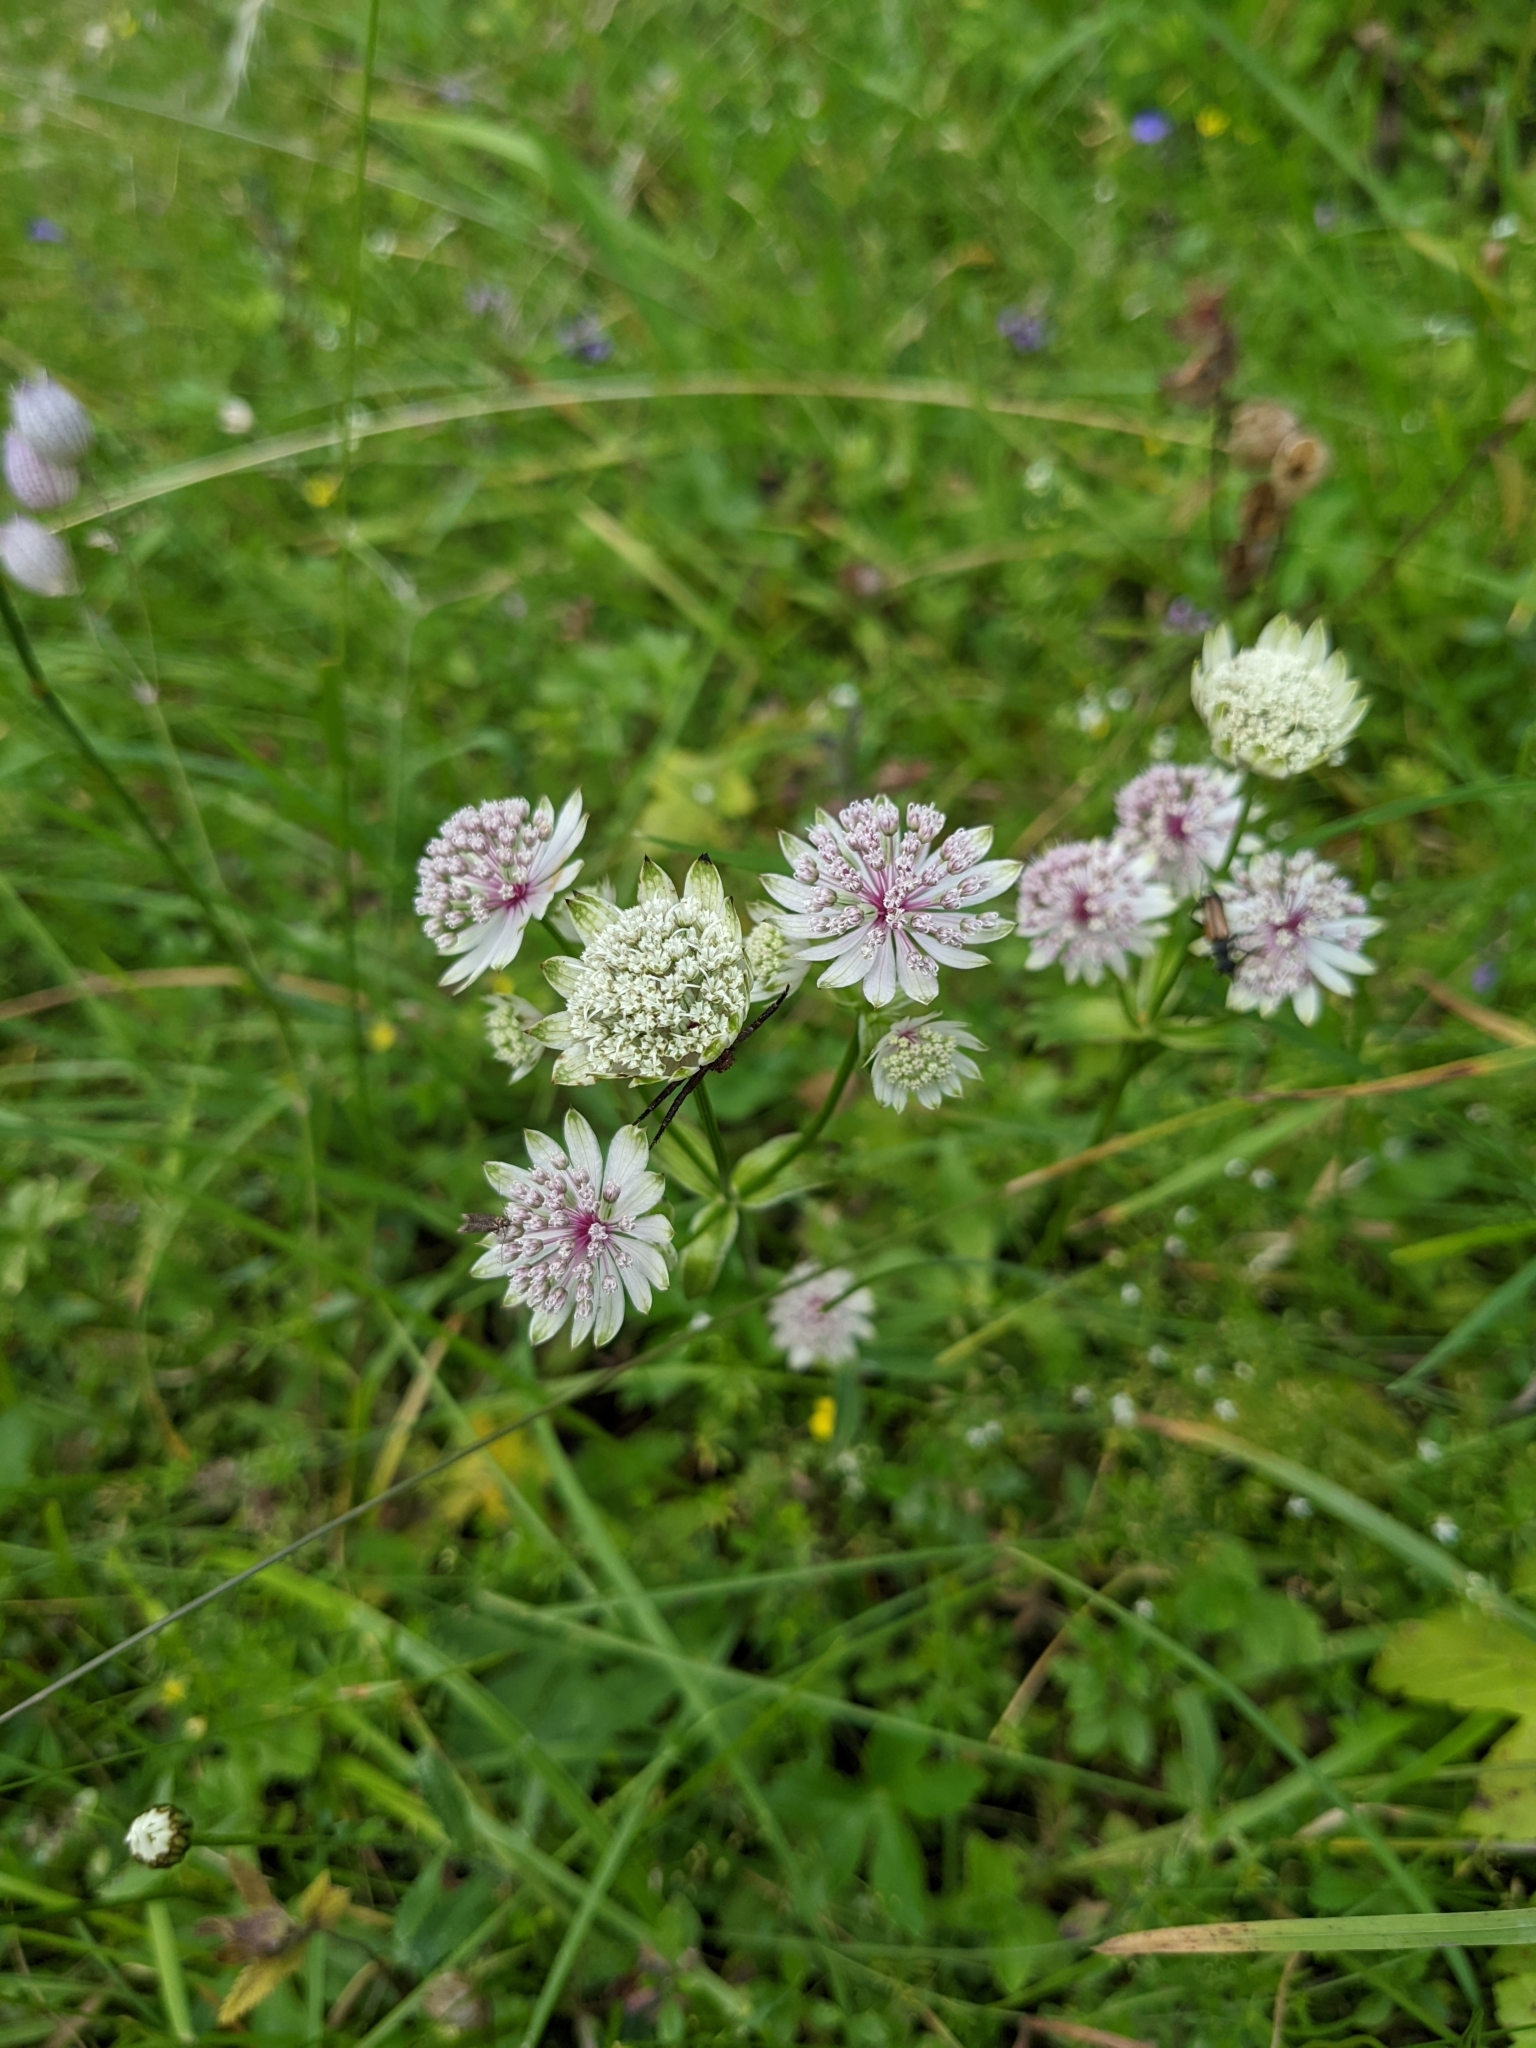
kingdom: Plantae
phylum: Tracheophyta
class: Magnoliopsida
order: Apiales
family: Apiaceae
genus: Astrantia
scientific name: Astrantia major
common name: Greater masterwort
